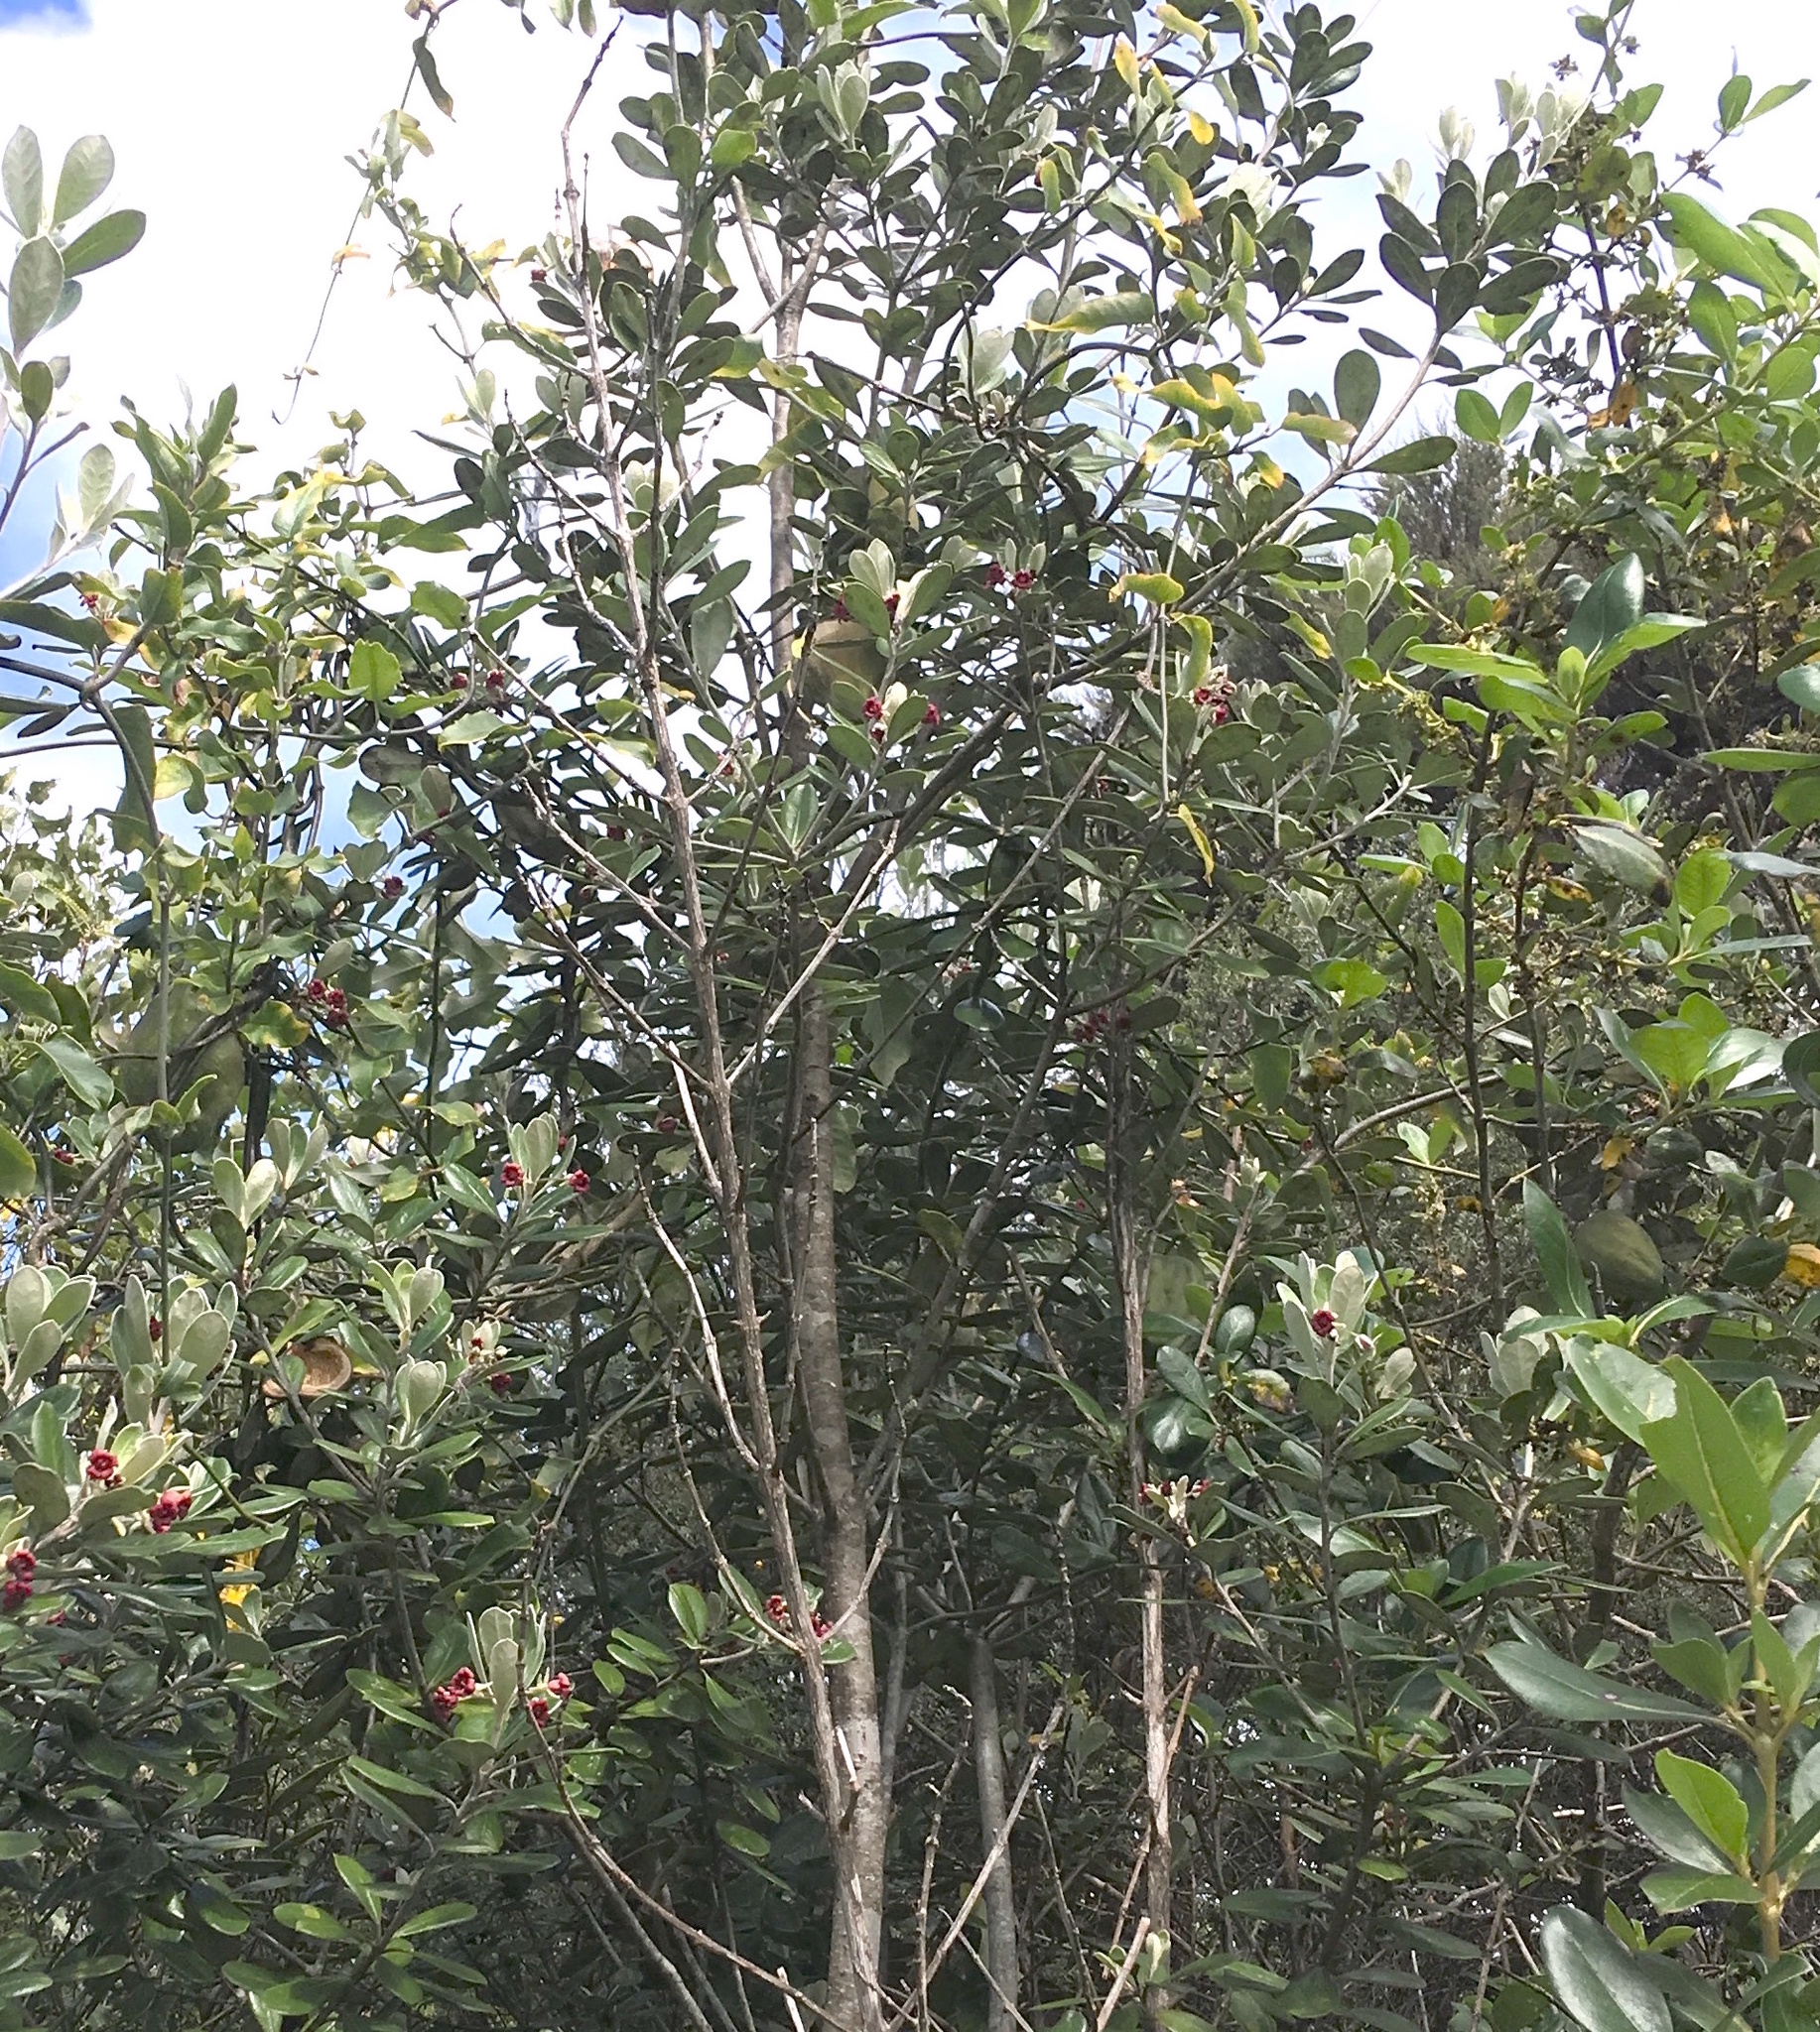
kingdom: Plantae
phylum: Tracheophyta
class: Magnoliopsida
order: Gentianales
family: Apocynaceae
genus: Araujia
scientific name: Araujia sericifera
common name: White bladderflower
